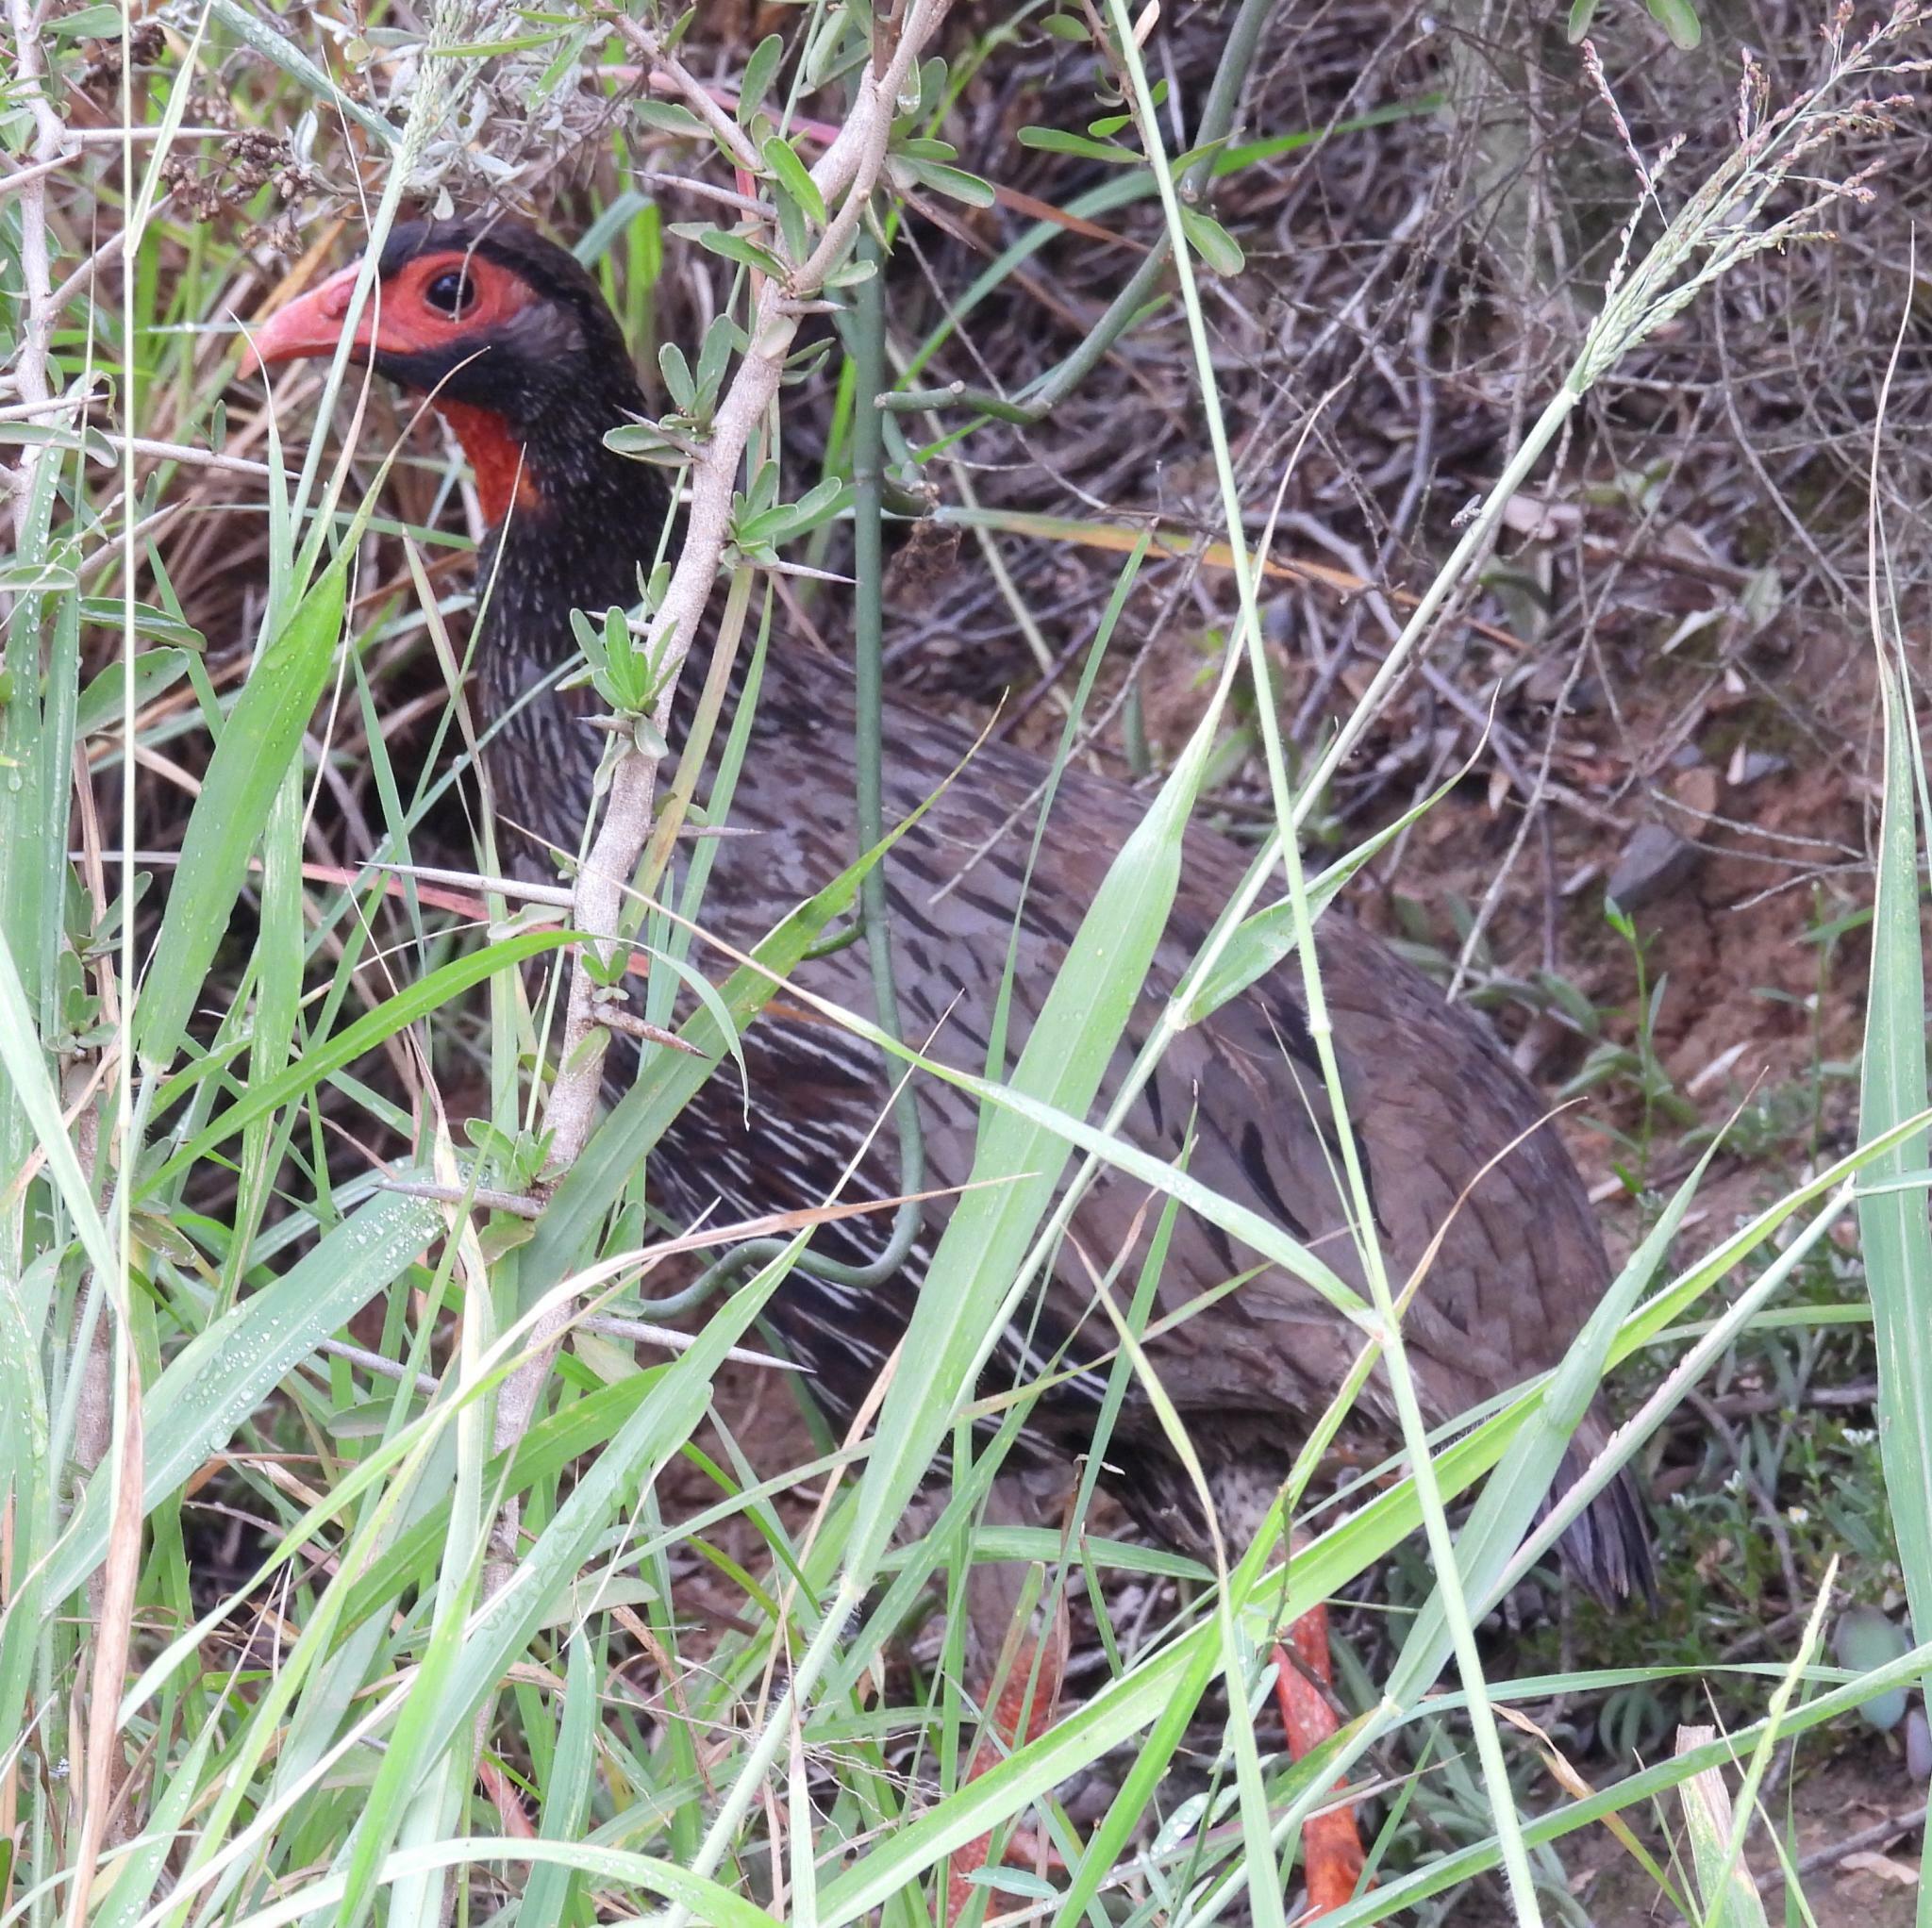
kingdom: Animalia
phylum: Chordata
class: Aves
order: Galliformes
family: Phasianidae
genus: Pternistis
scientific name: Pternistis afer
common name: Red-necked spurfowl
